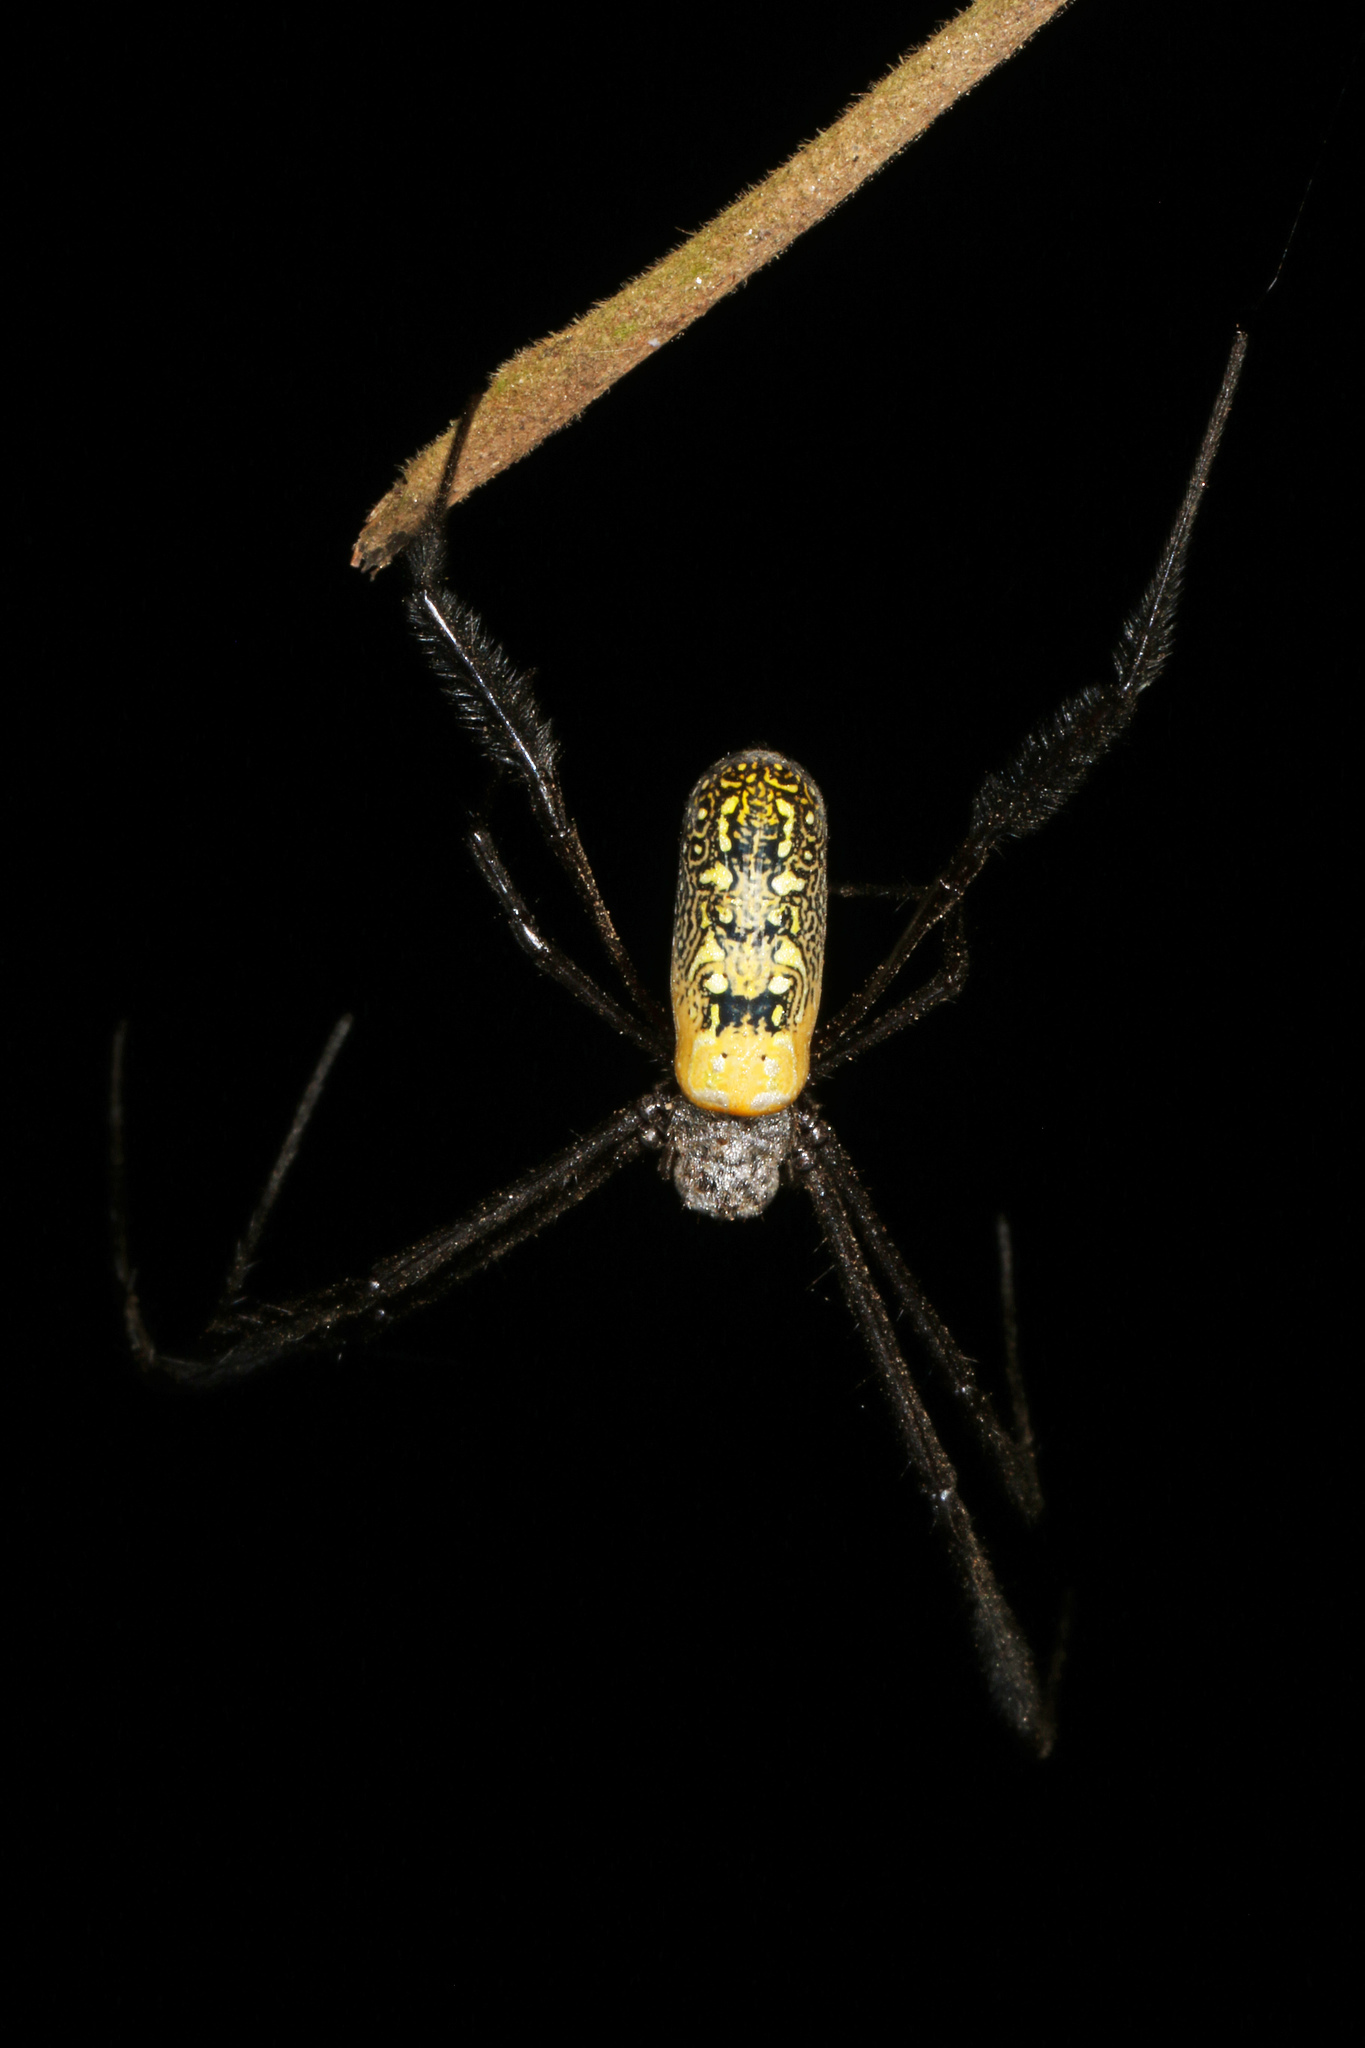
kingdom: Animalia
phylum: Arthropoda
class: Arachnida
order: Araneae
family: Araneidae
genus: Trichonephila
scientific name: Trichonephila fenestrata
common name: Hairy golden orb weaver
